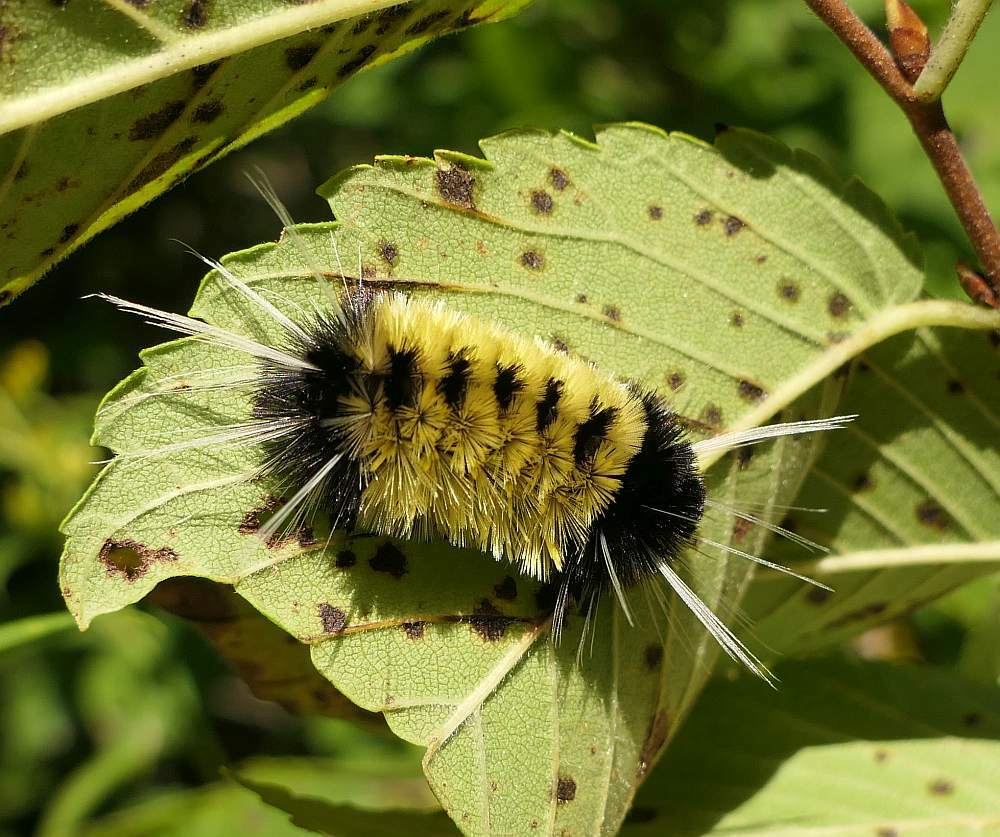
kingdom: Animalia
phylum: Arthropoda
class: Insecta
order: Lepidoptera
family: Erebidae
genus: Lophocampa
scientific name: Lophocampa maculata
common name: Spotted tussock moth
